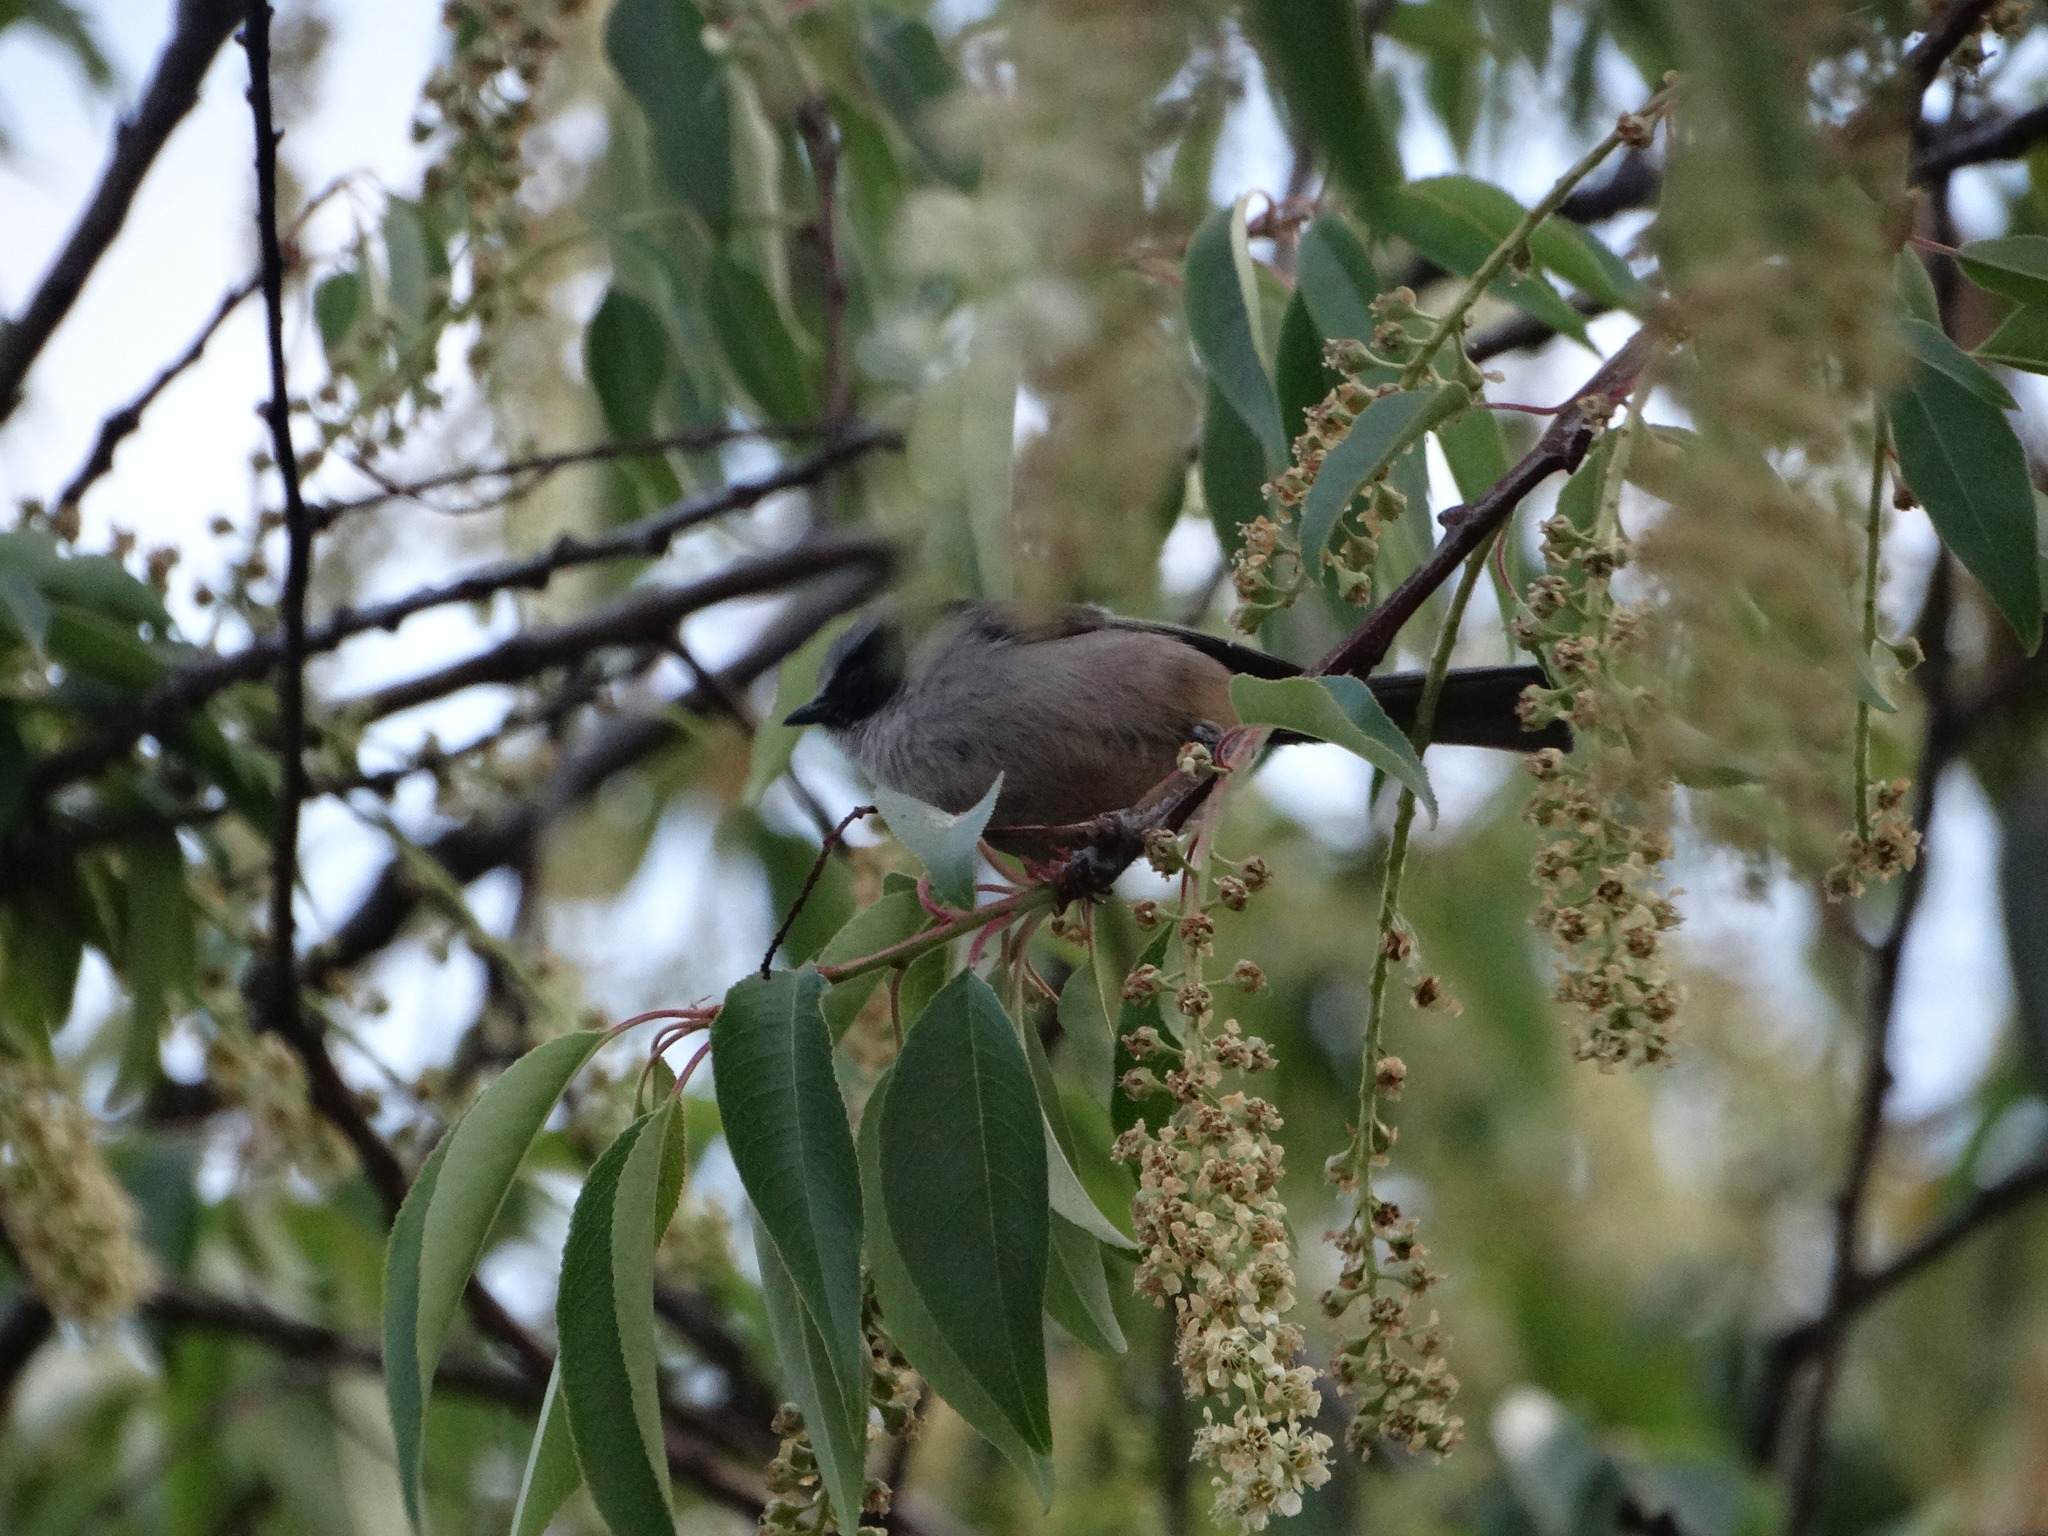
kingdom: Animalia
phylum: Chordata
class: Aves
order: Passeriformes
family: Aegithalidae
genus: Psaltriparus
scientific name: Psaltriparus minimus
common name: American bushtit
